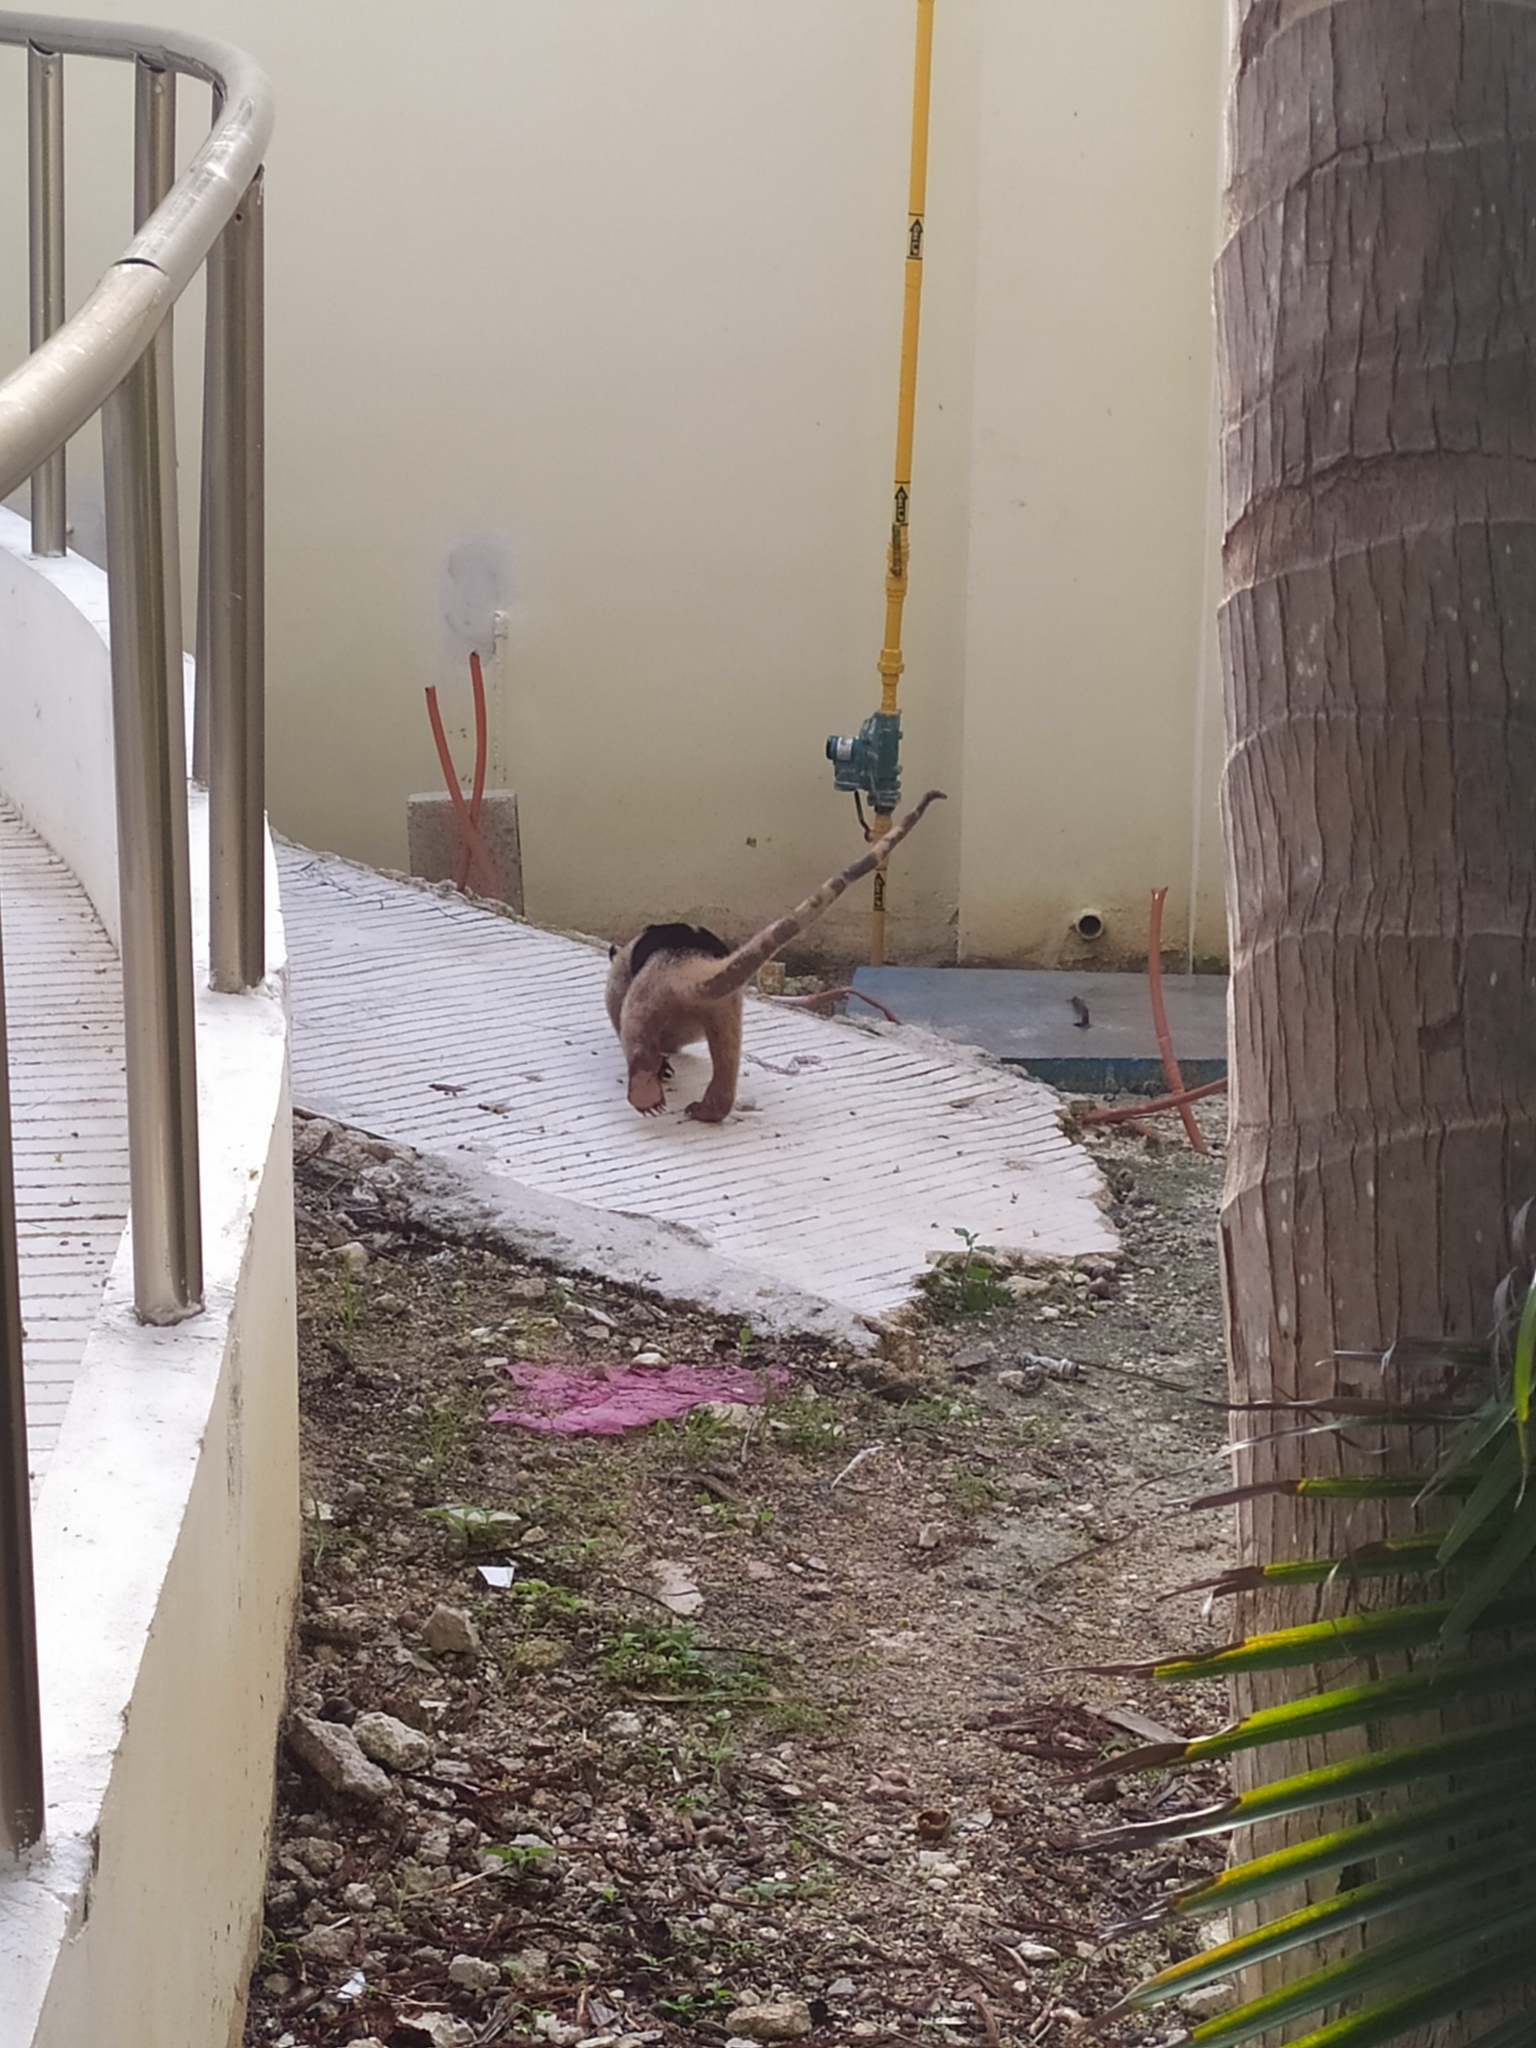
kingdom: Animalia
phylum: Chordata
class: Mammalia
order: Pilosa
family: Myrmecophagidae
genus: Tamandua
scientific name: Tamandua mexicana
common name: Northern tamandua
